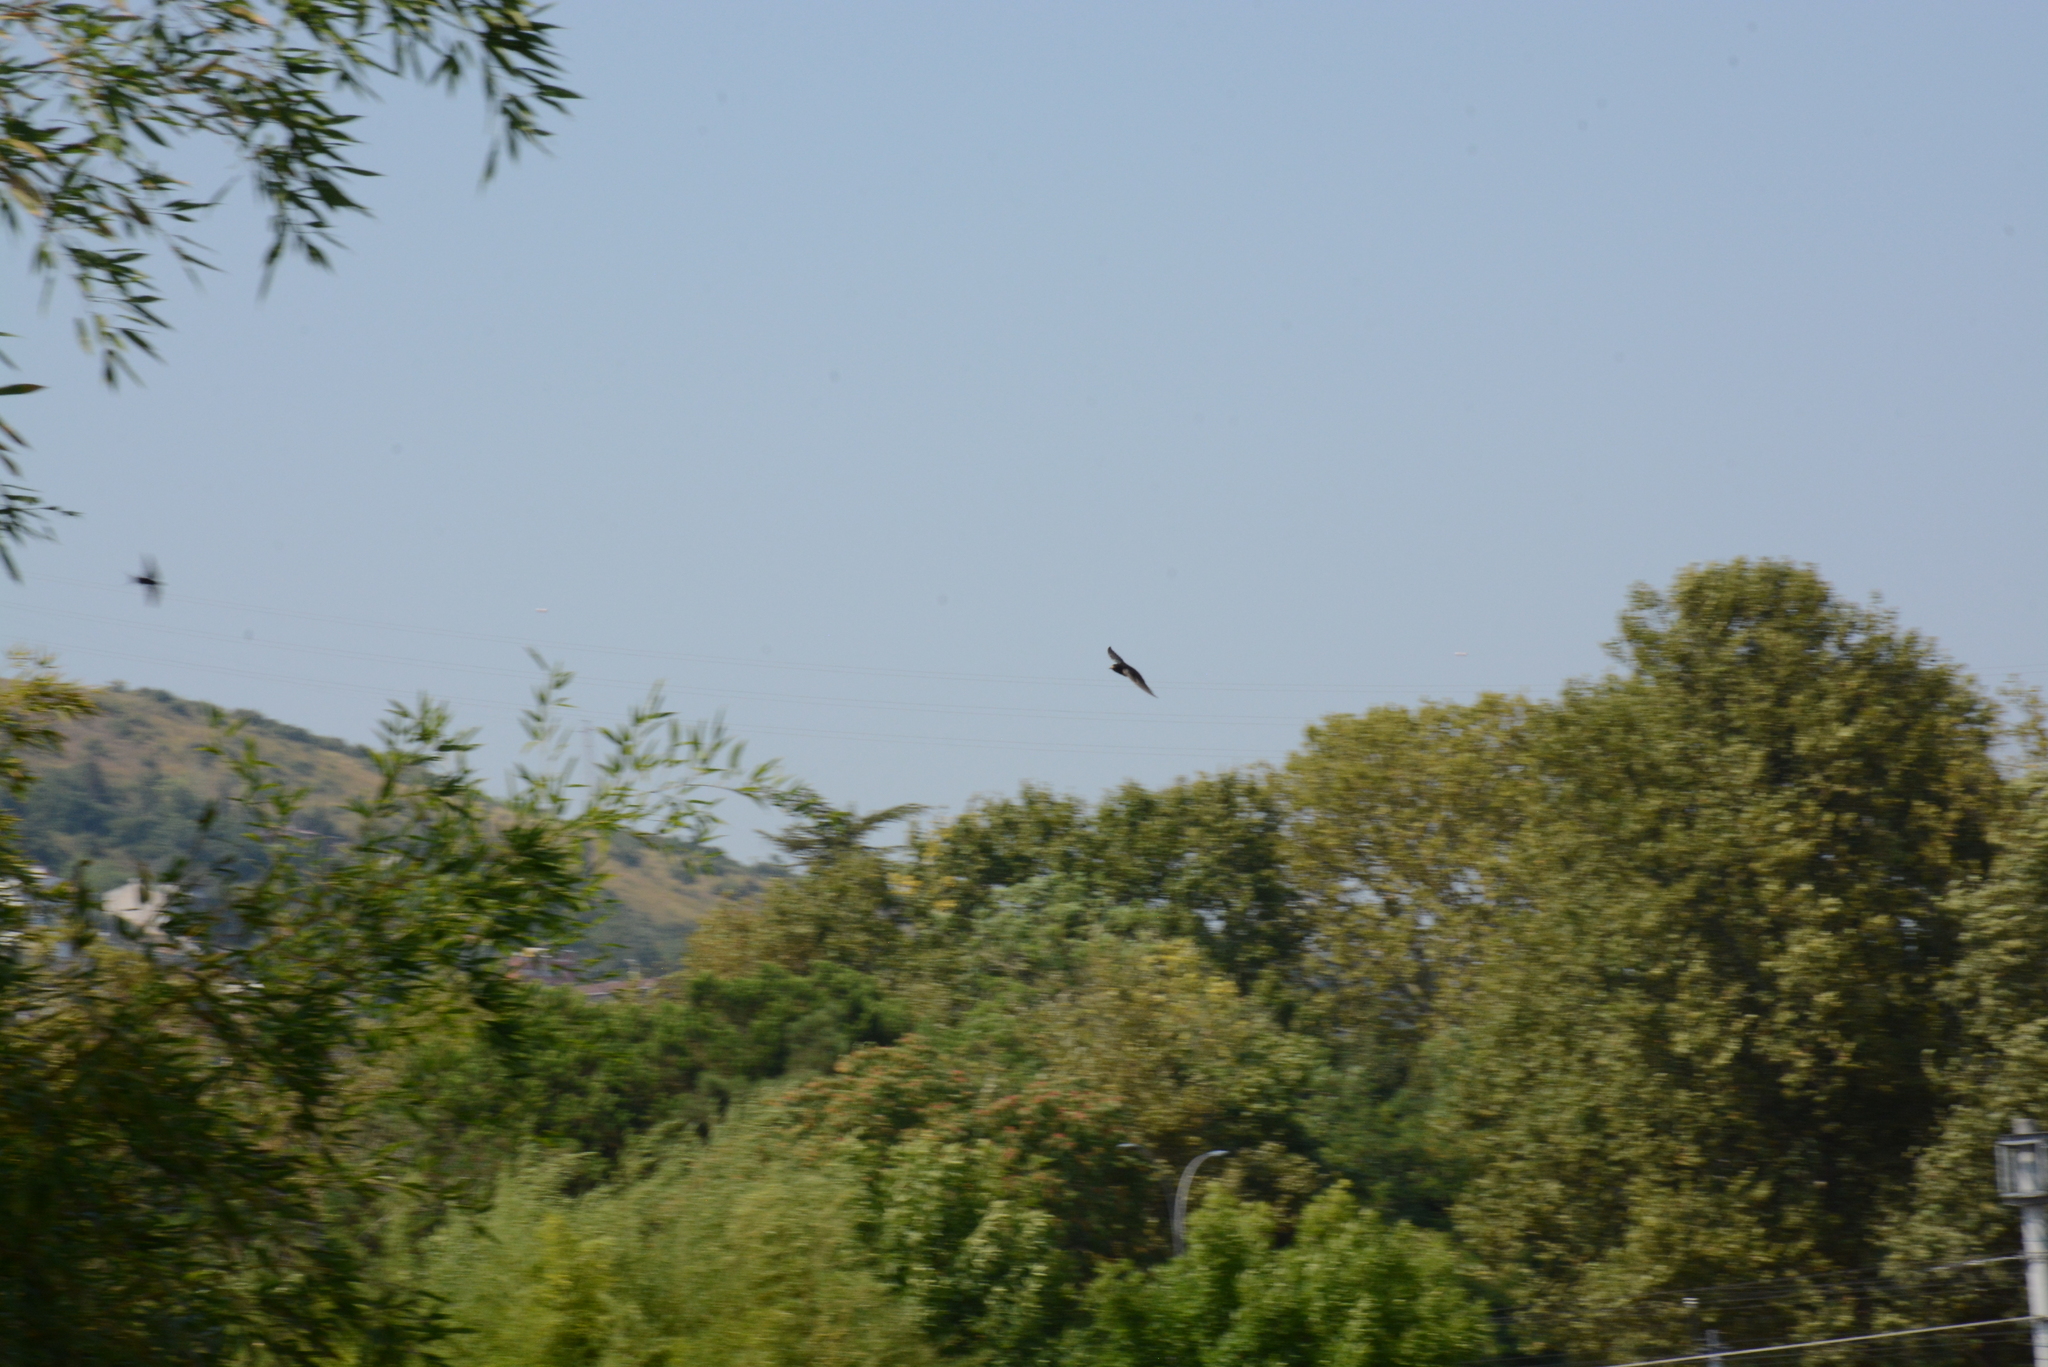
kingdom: Animalia
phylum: Chordata
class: Aves
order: Passeriformes
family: Hirundinidae
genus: Hirundo
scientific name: Hirundo rustica
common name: Barn swallow
